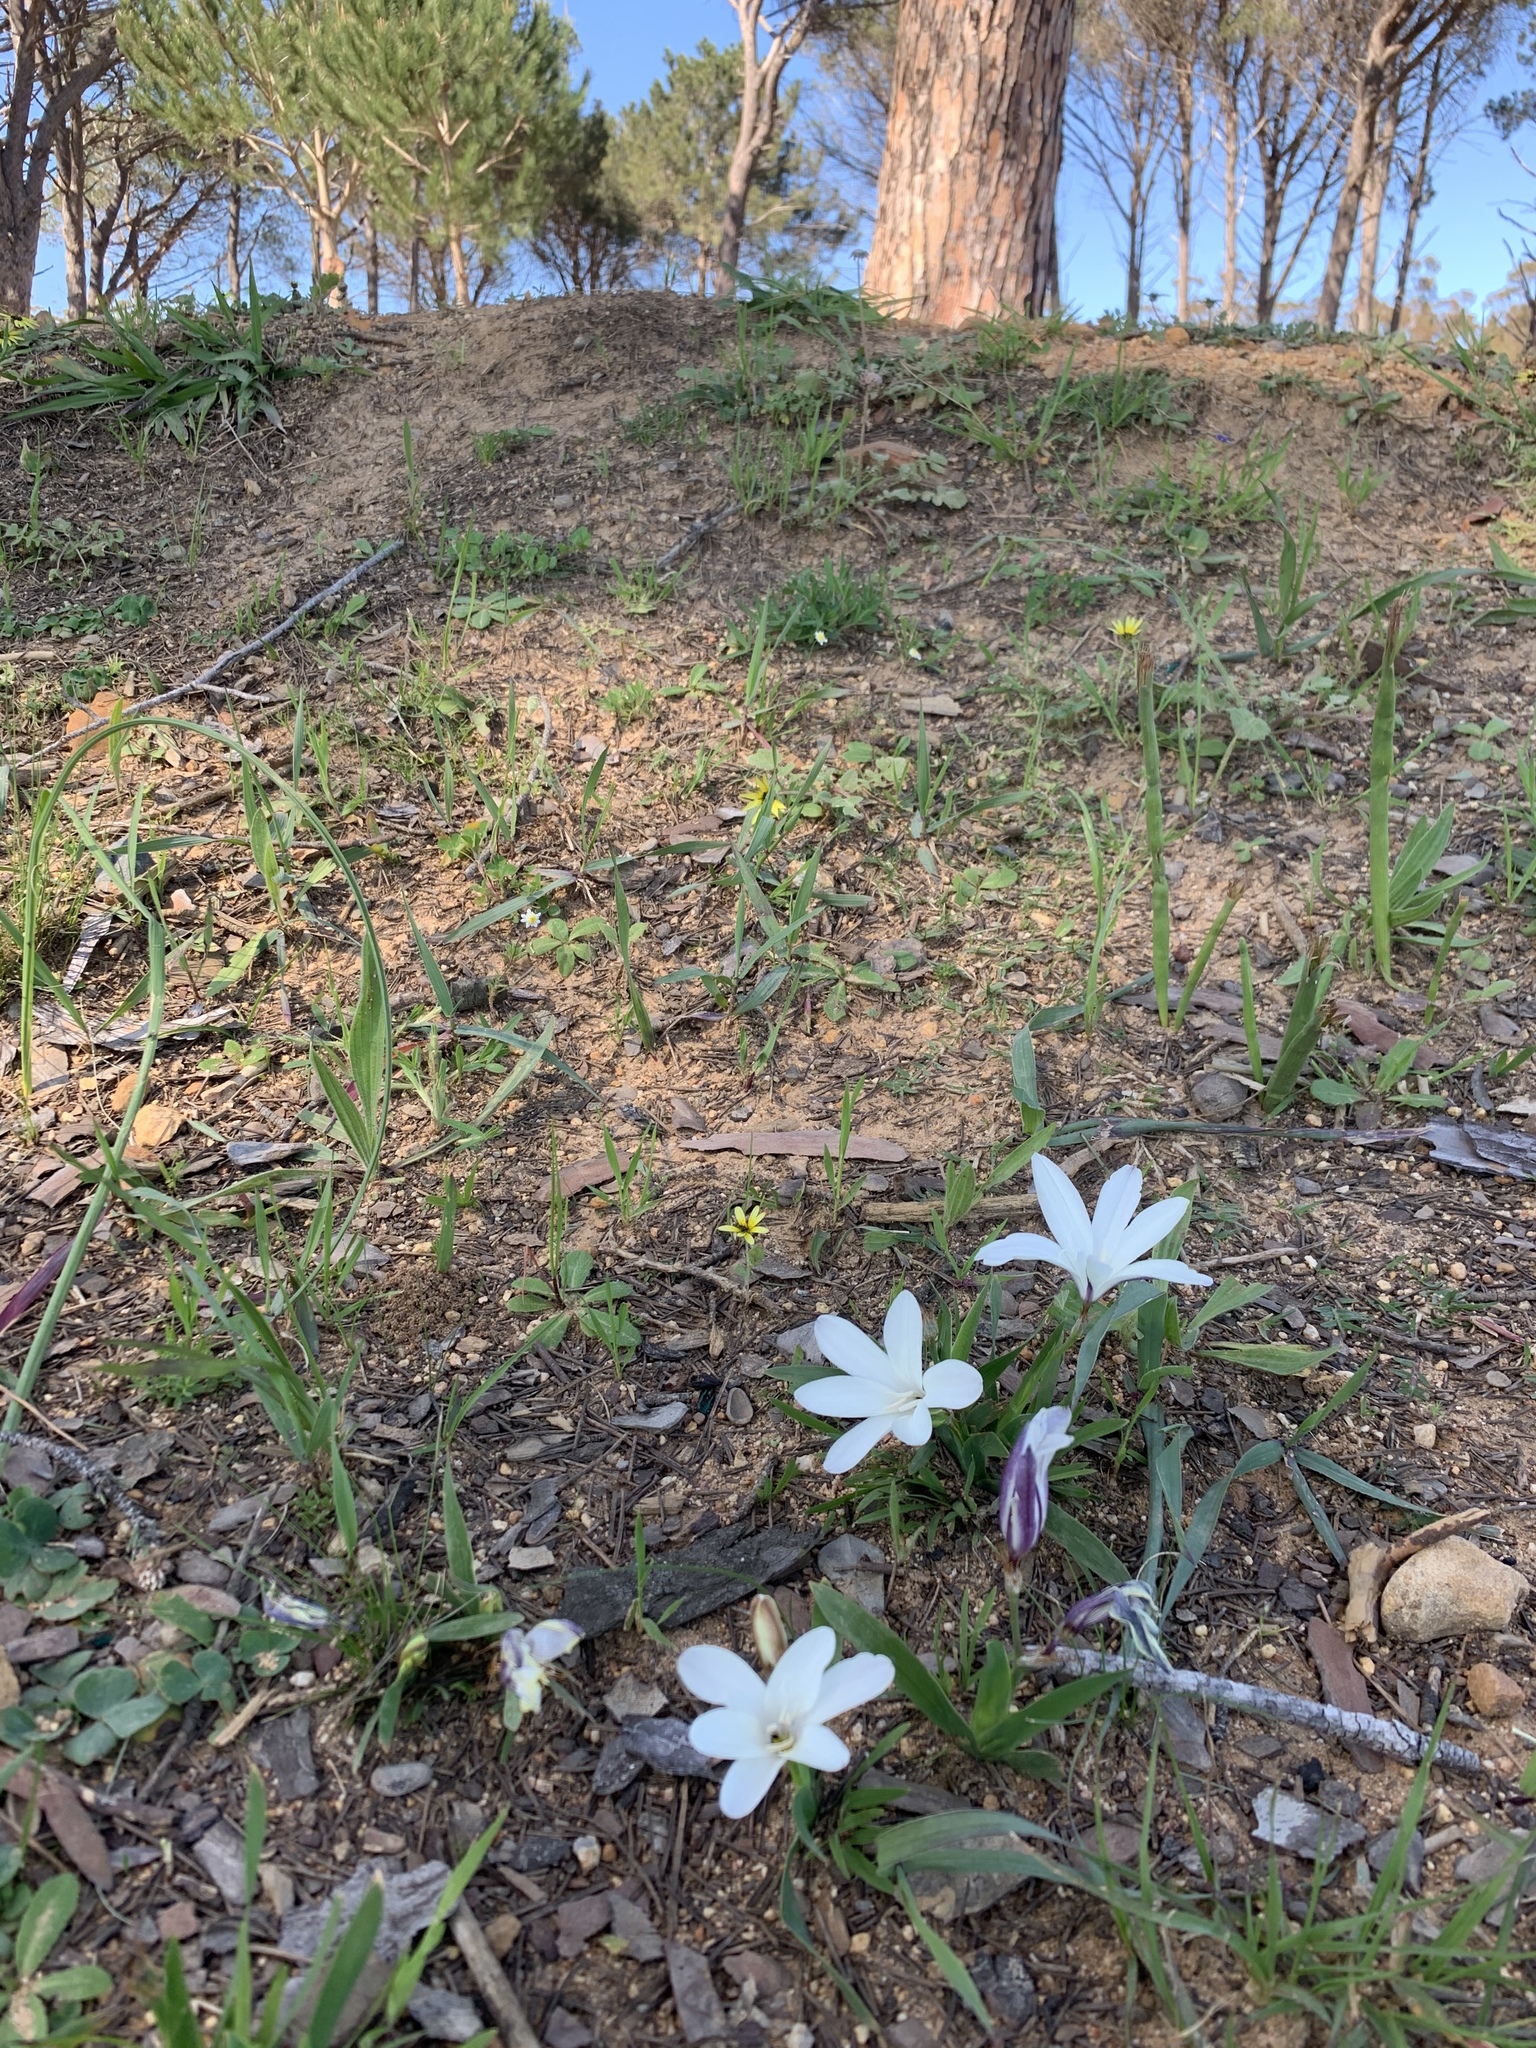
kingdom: Plantae
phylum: Tracheophyta
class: Liliopsida
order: Asparagales
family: Iridaceae
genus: Sparaxis
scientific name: Sparaxis grandiflora
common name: Plain harlequin-flower
